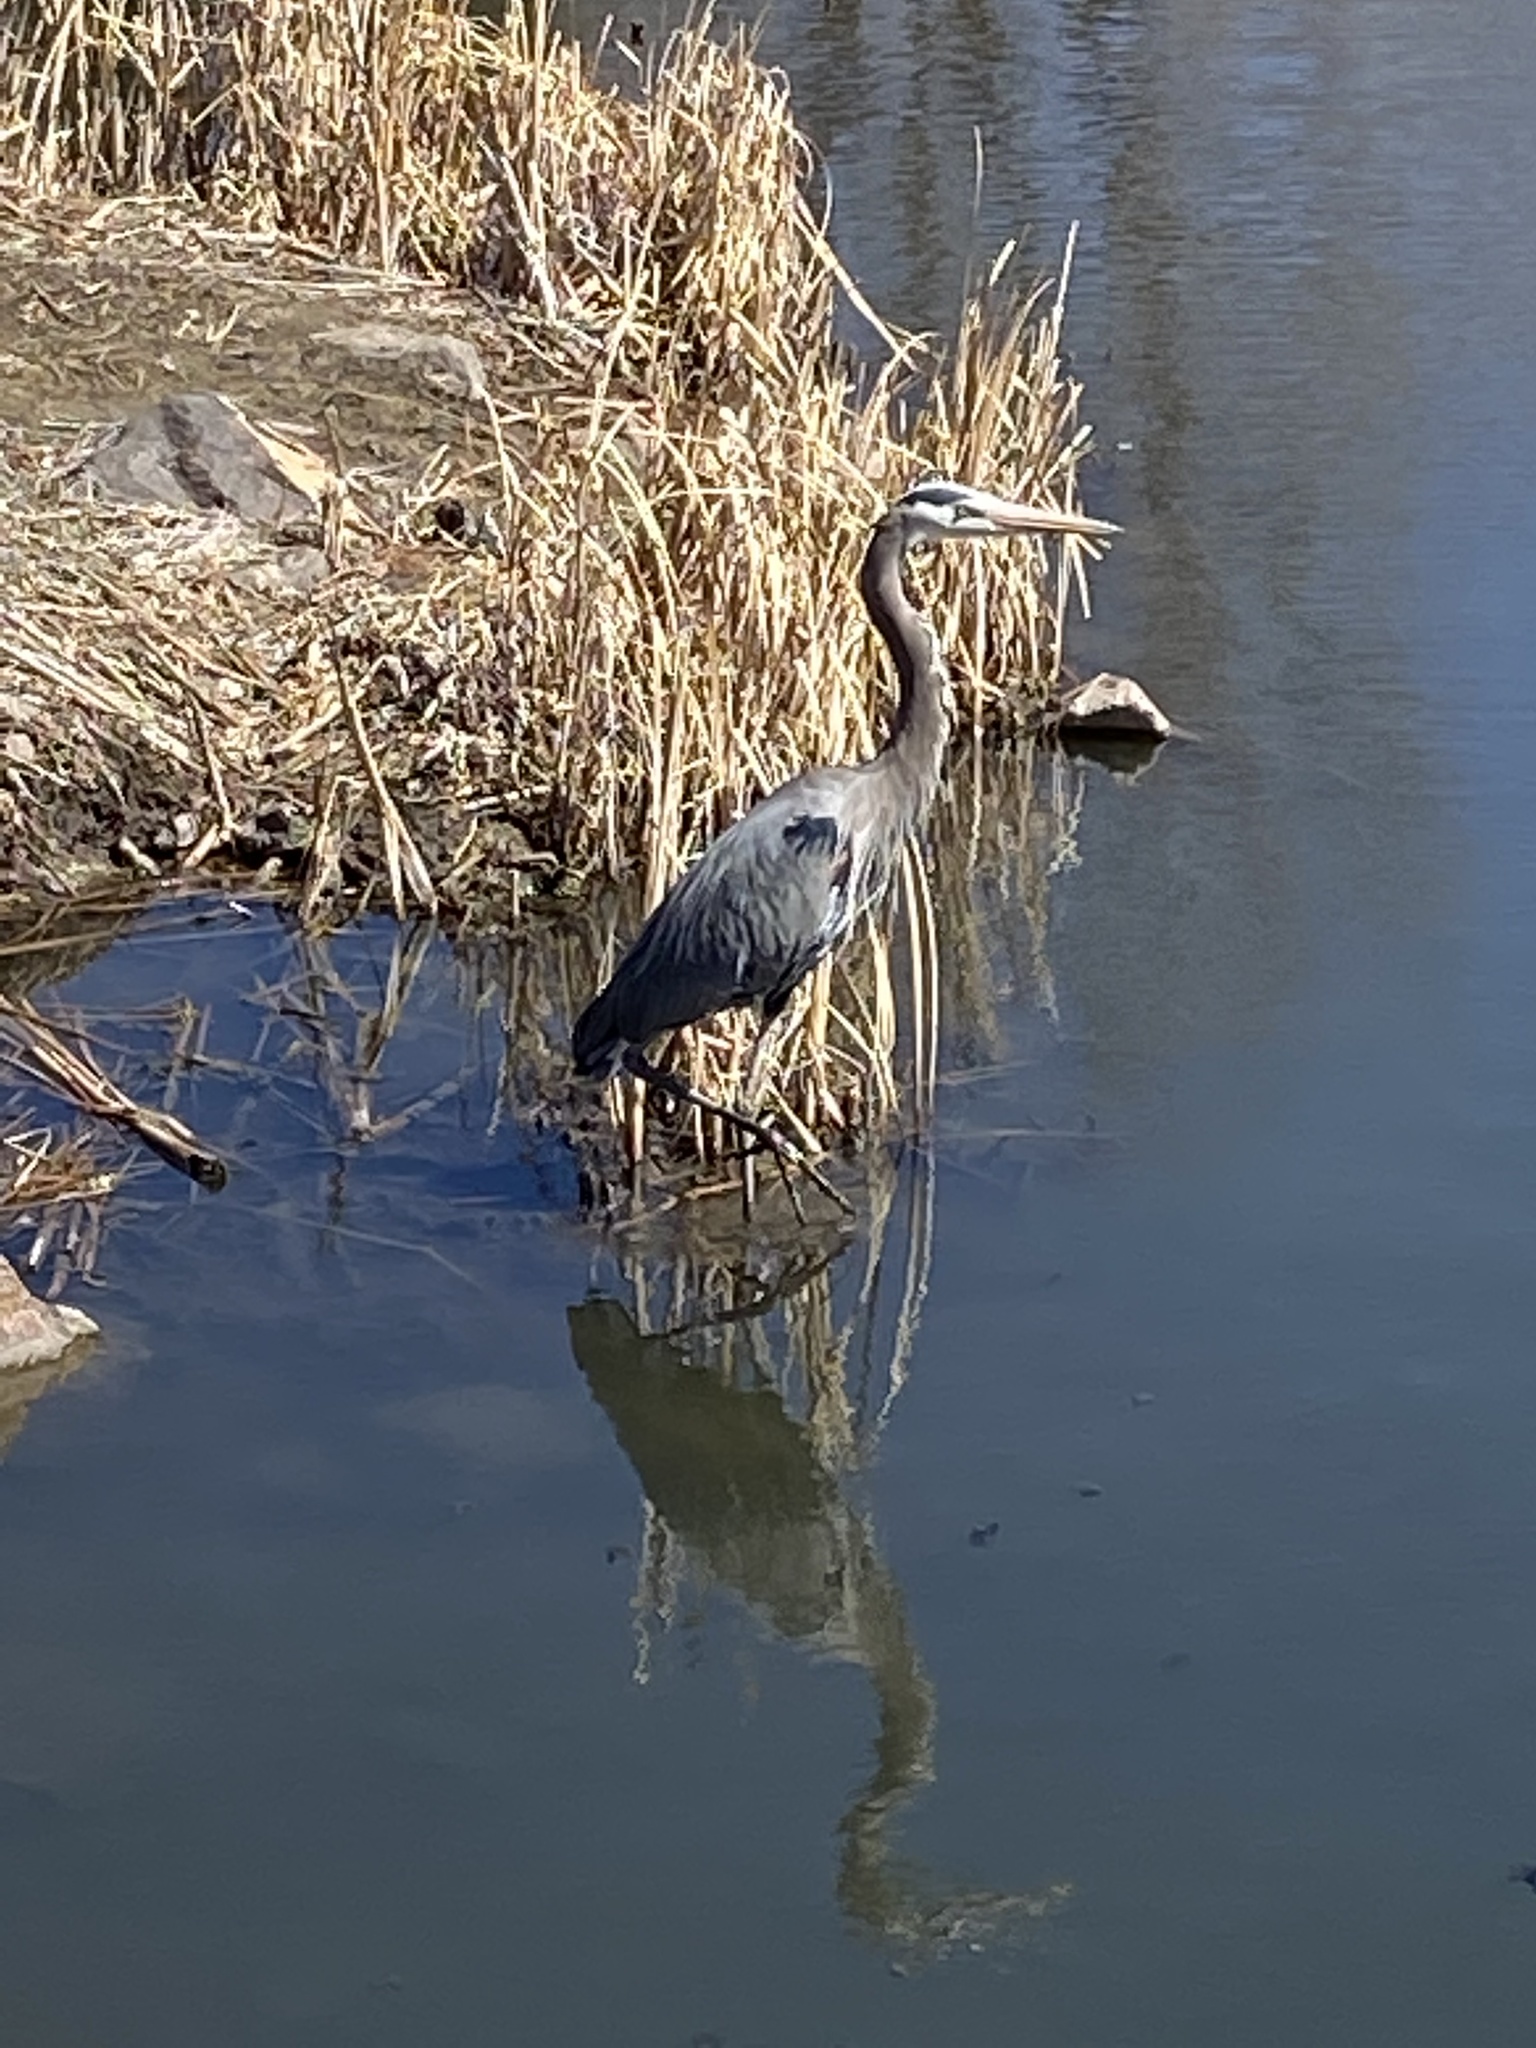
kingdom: Animalia
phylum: Chordata
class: Aves
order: Pelecaniformes
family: Ardeidae
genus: Ardea
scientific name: Ardea herodias
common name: Great blue heron
